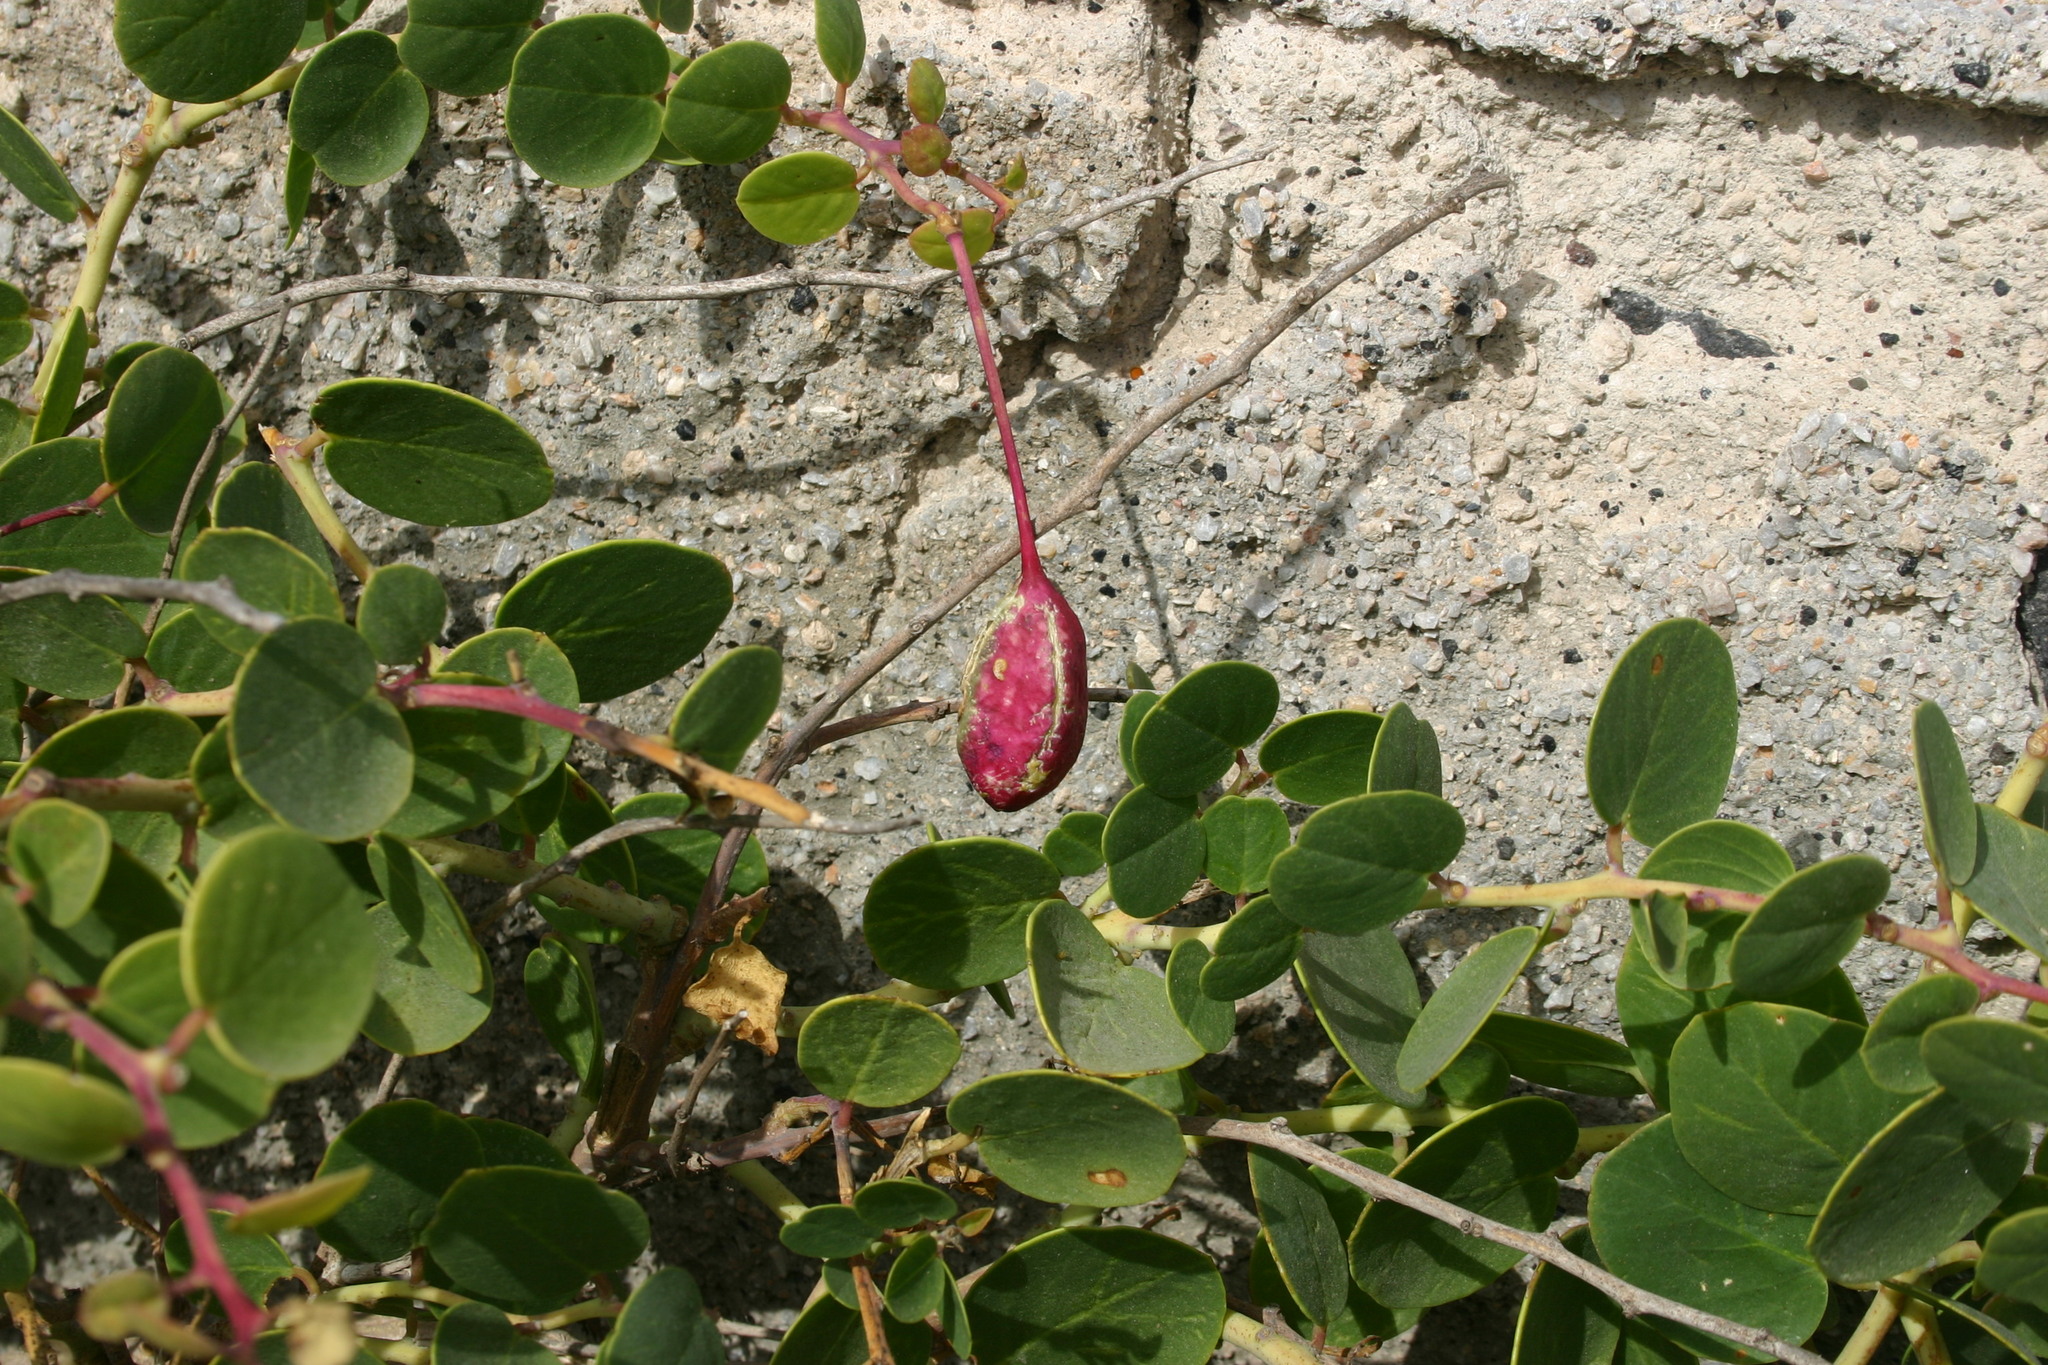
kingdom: Plantae
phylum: Tracheophyta
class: Magnoliopsida
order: Brassicales
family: Capparaceae
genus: Capparis
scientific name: Capparis orientalis
